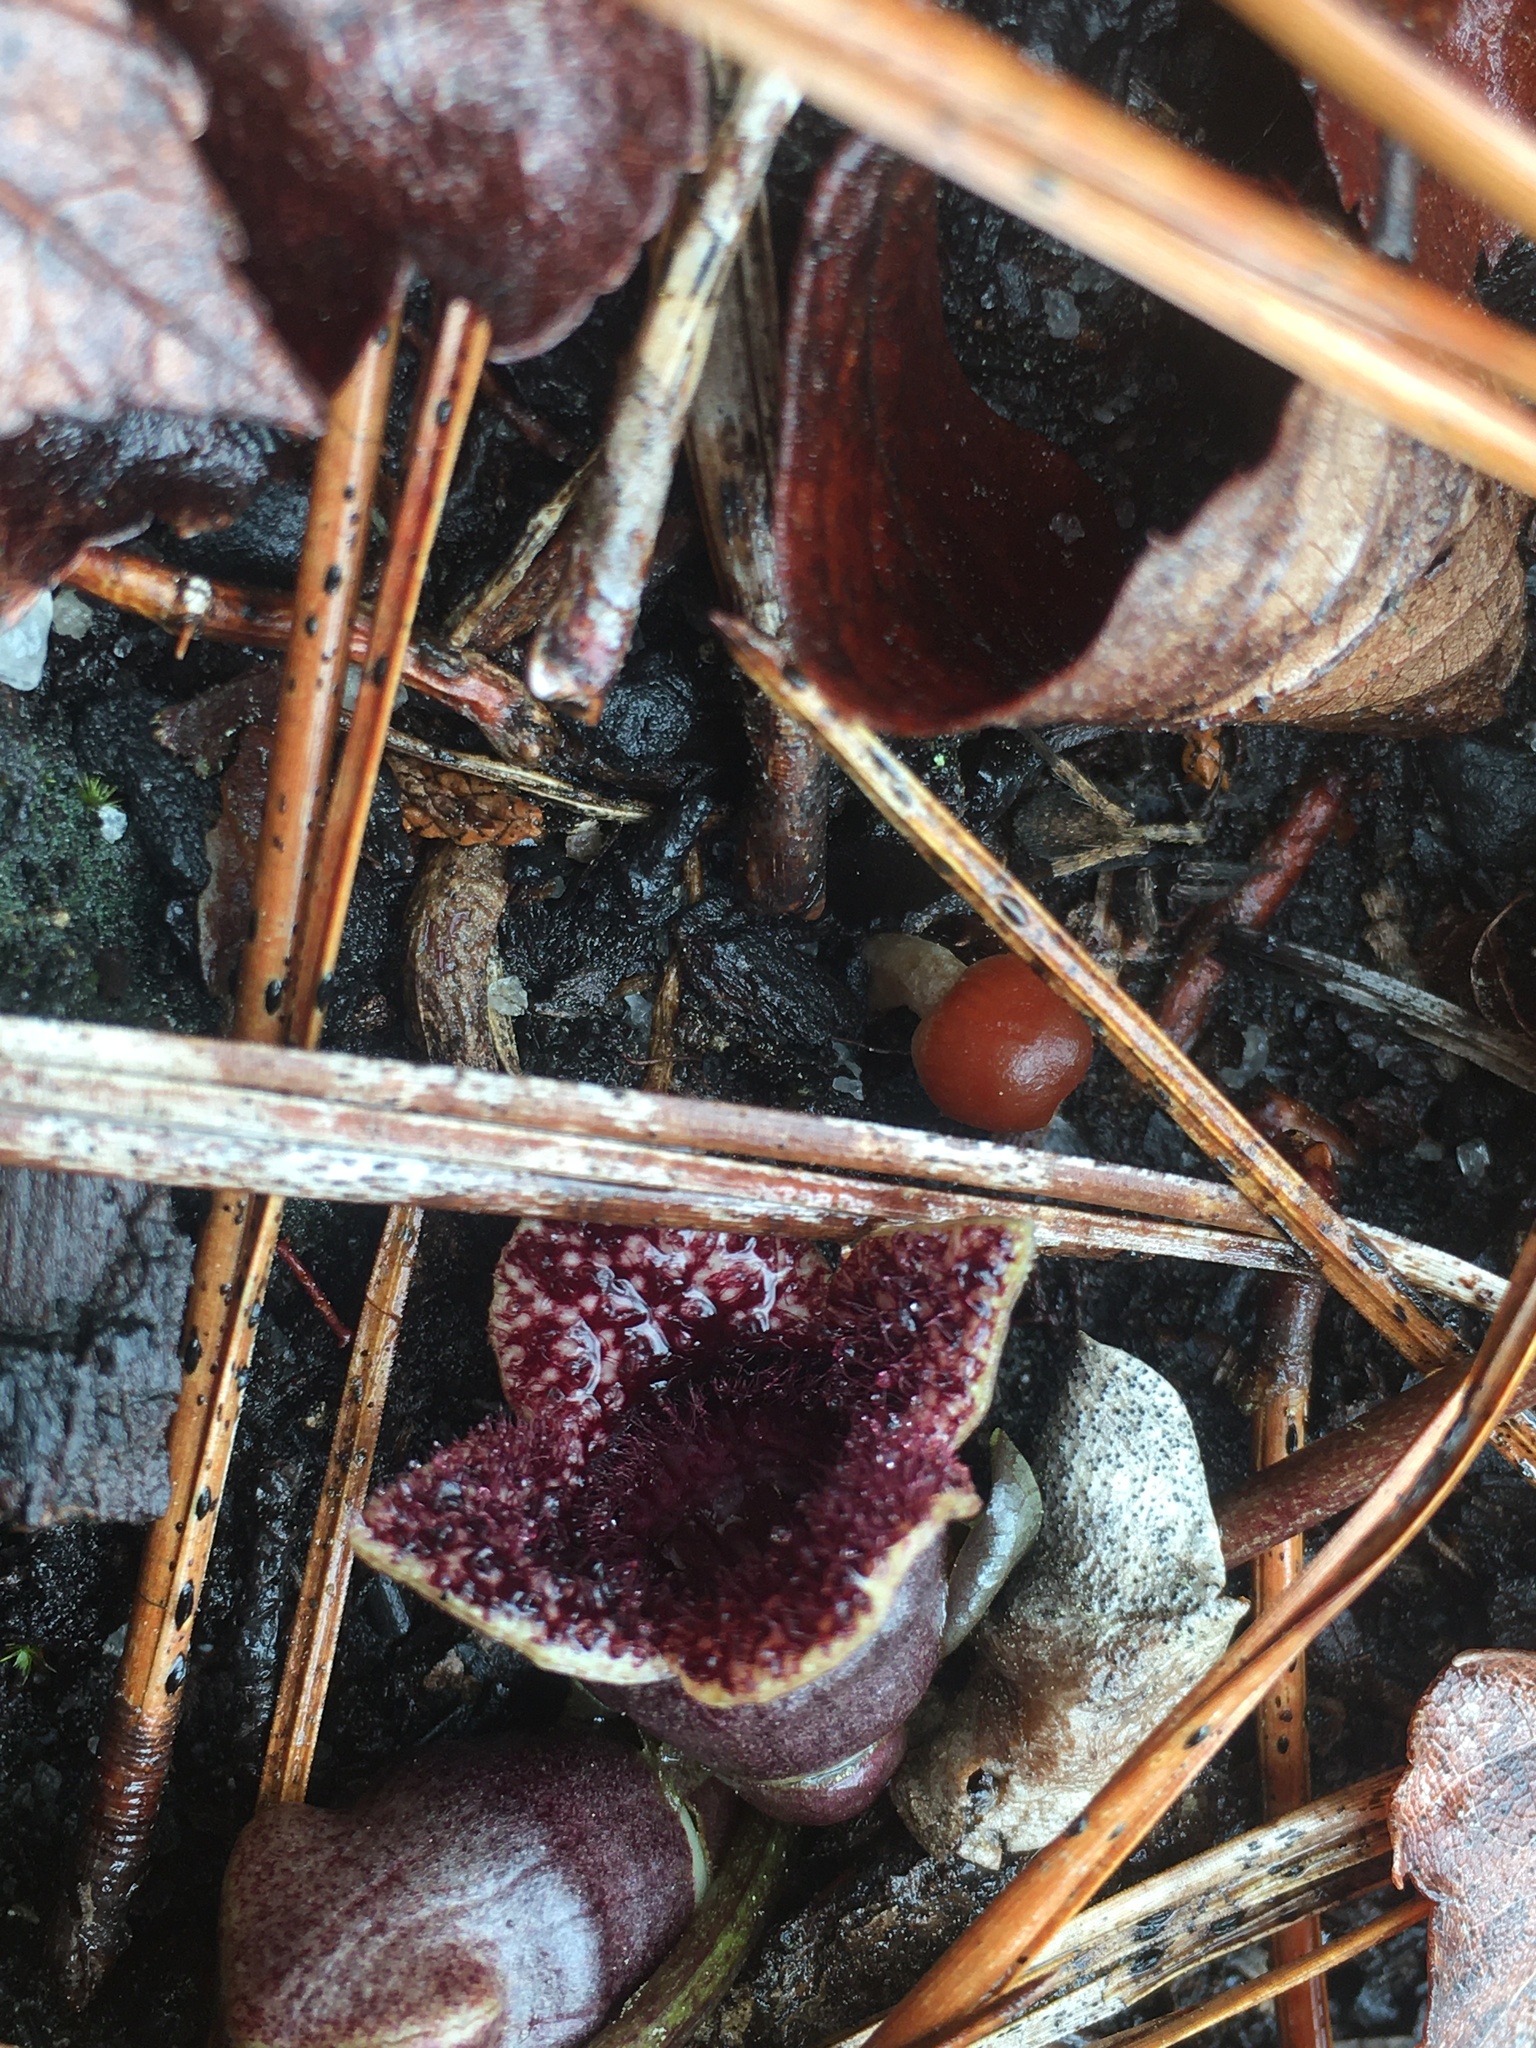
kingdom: Plantae
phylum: Tracheophyta
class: Magnoliopsida
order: Piperales
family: Aristolochiaceae
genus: Hexastylis
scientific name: Hexastylis sorriei
